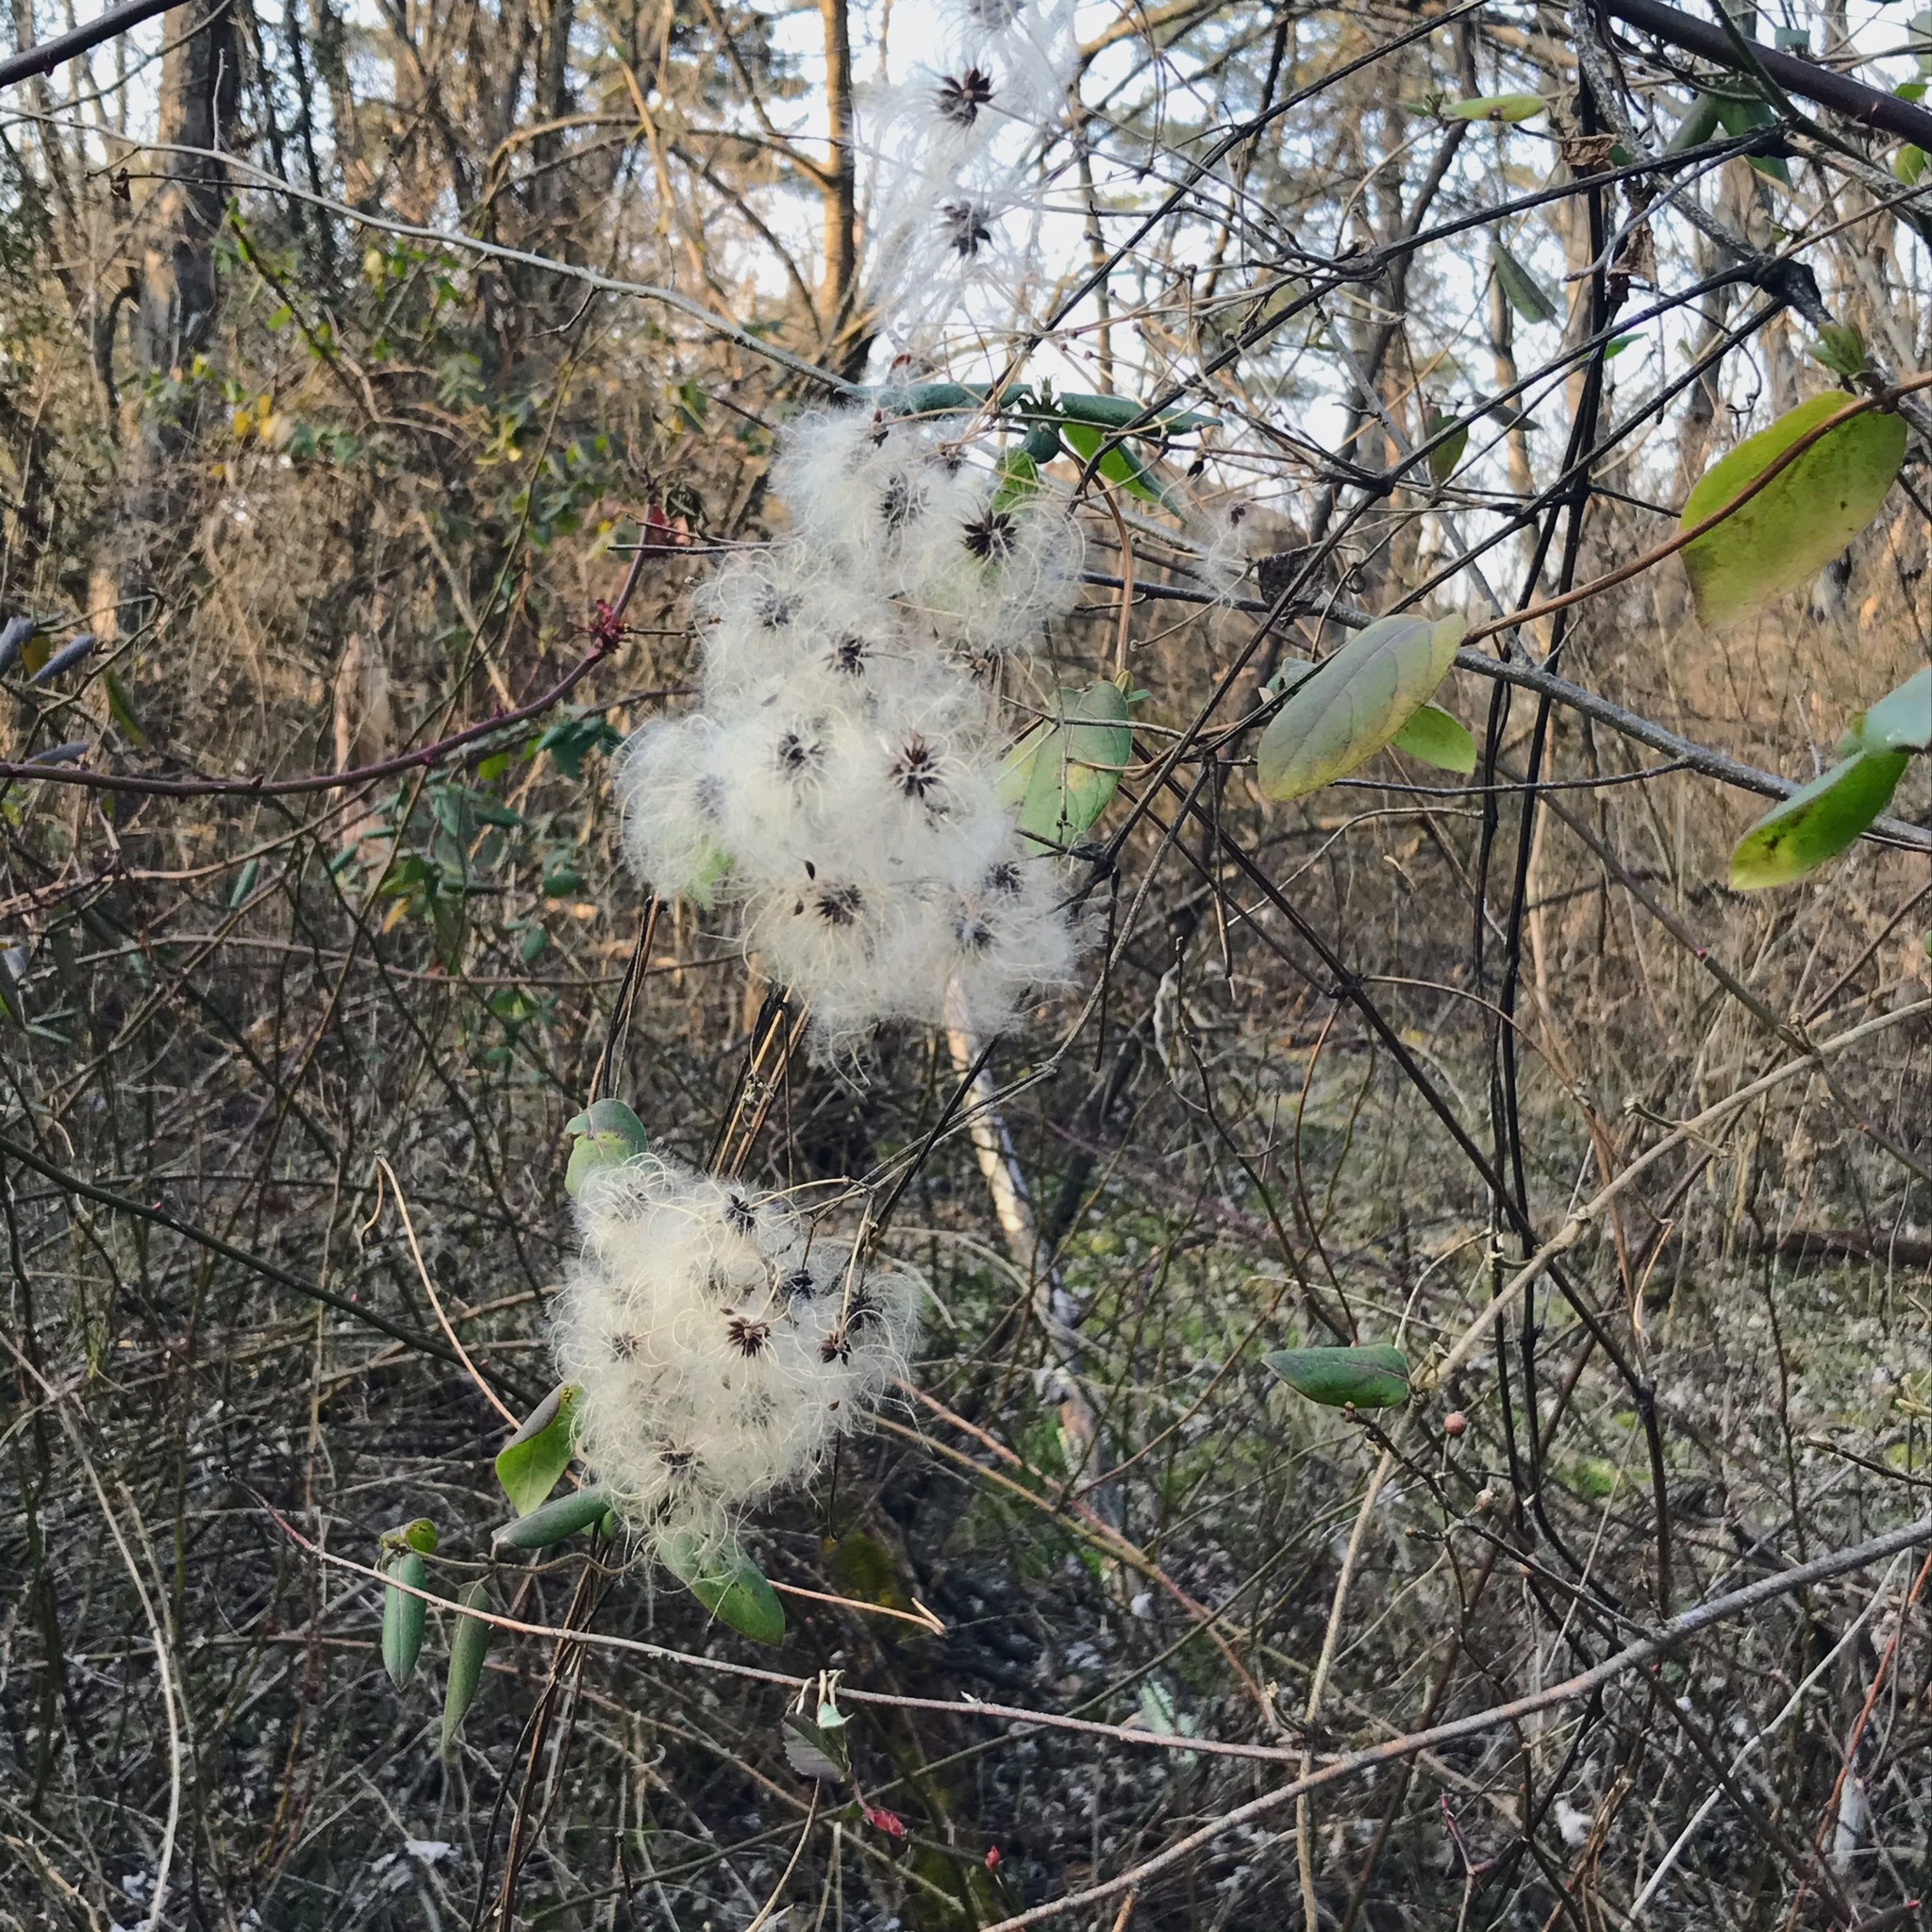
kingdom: Plantae
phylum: Tracheophyta
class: Magnoliopsida
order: Ranunculales
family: Ranunculaceae
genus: Clematis
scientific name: Clematis terniflora
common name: Sweet autumn clematis
